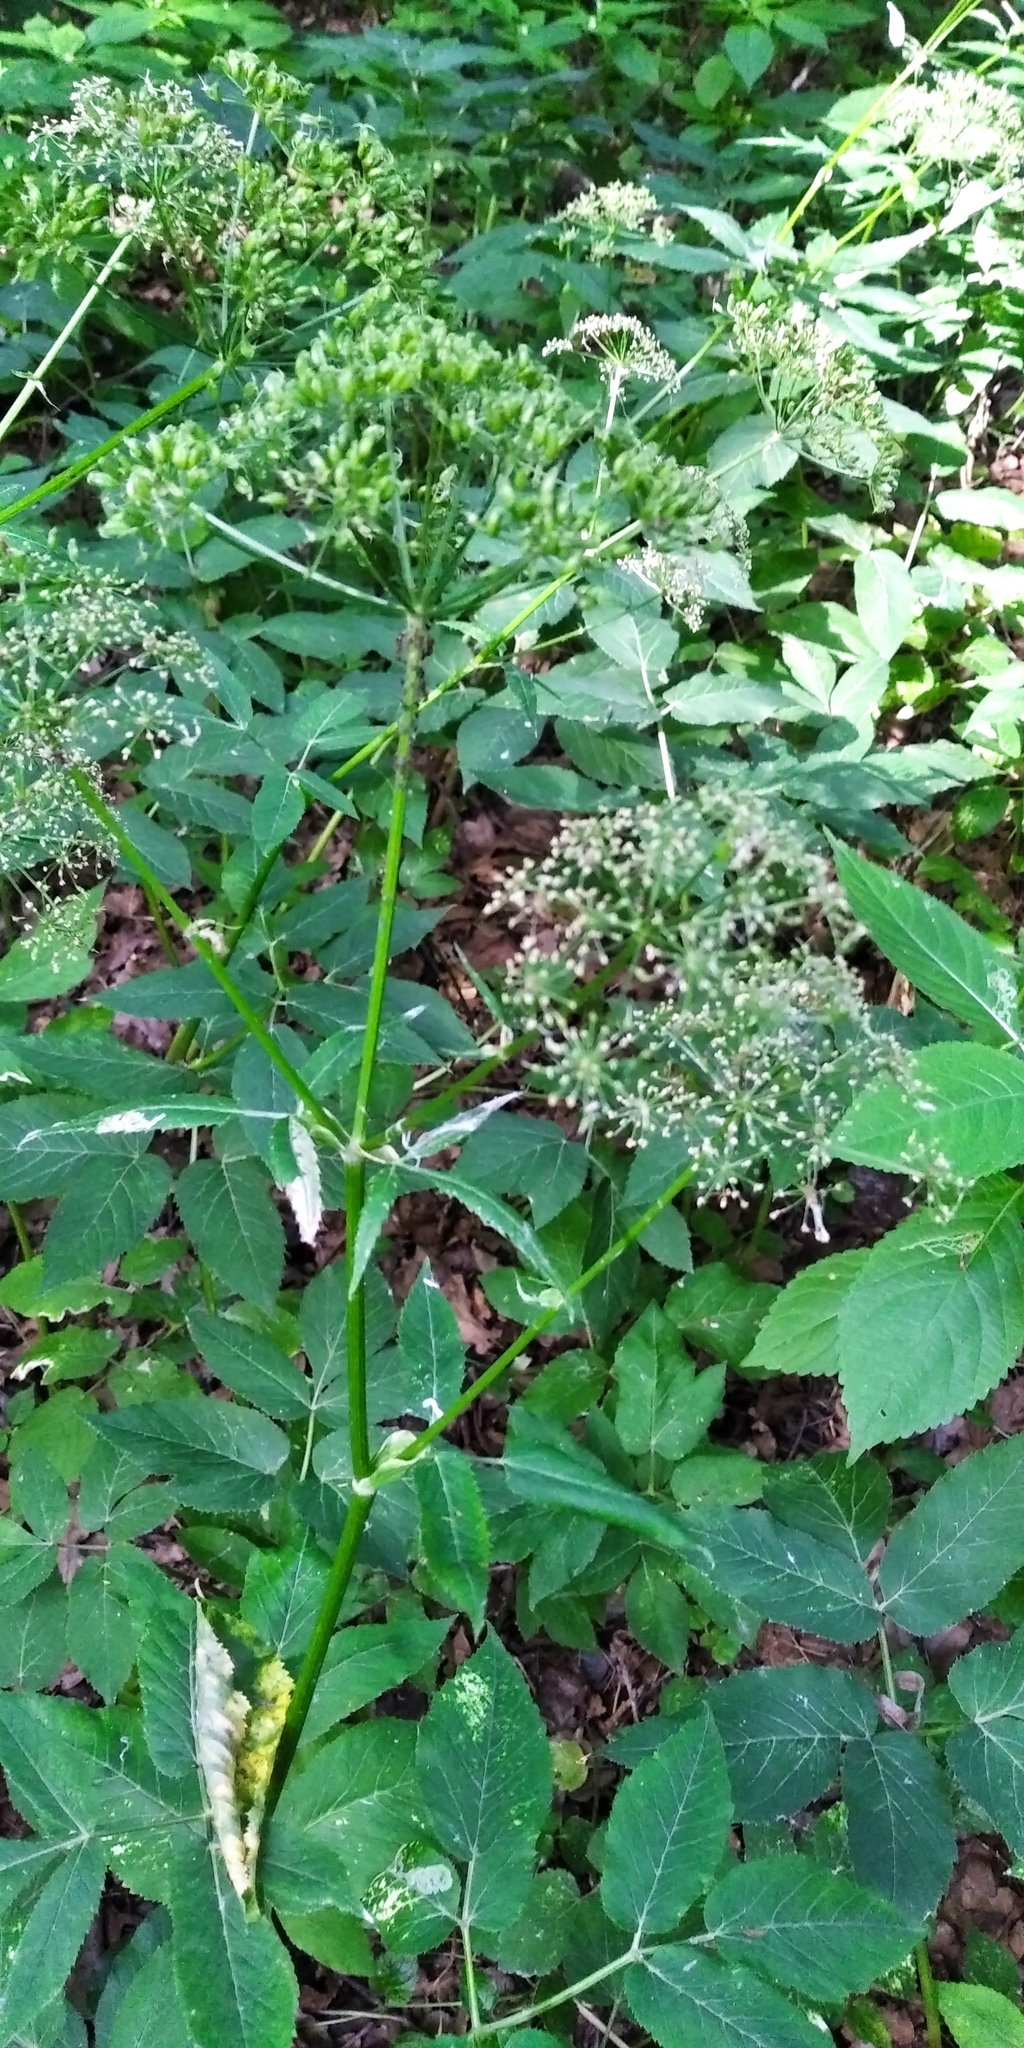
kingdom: Plantae
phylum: Tracheophyta
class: Magnoliopsida
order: Apiales
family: Apiaceae
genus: Aegopodium
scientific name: Aegopodium podagraria
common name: Ground-elder
